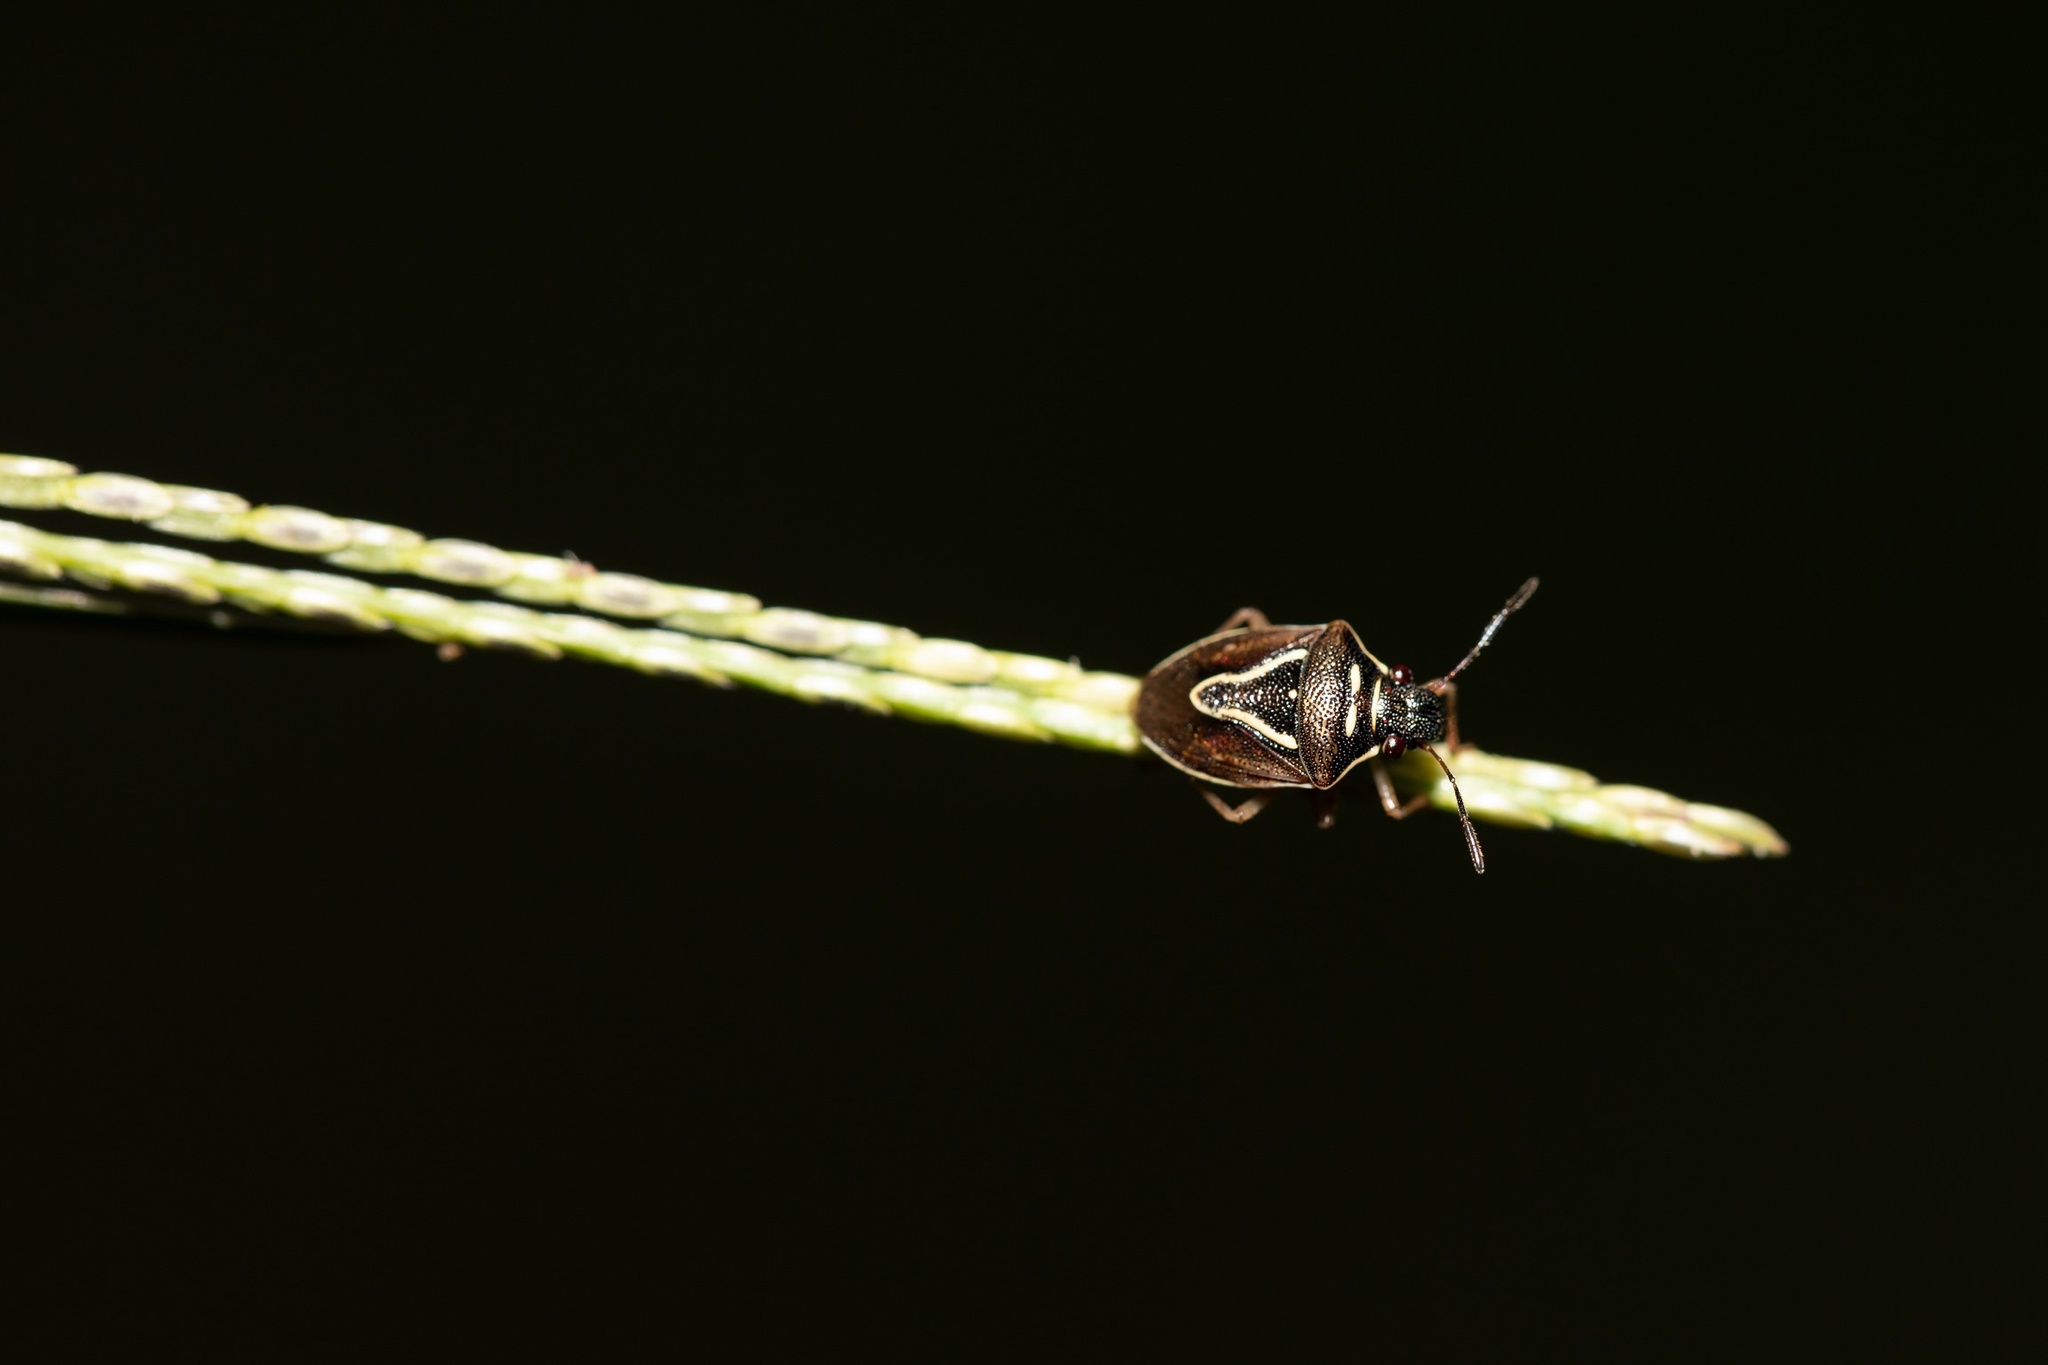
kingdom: Animalia
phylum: Arthropoda
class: Insecta
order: Hemiptera
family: Pentatomidae
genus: Mormidea
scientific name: Mormidea lugens
